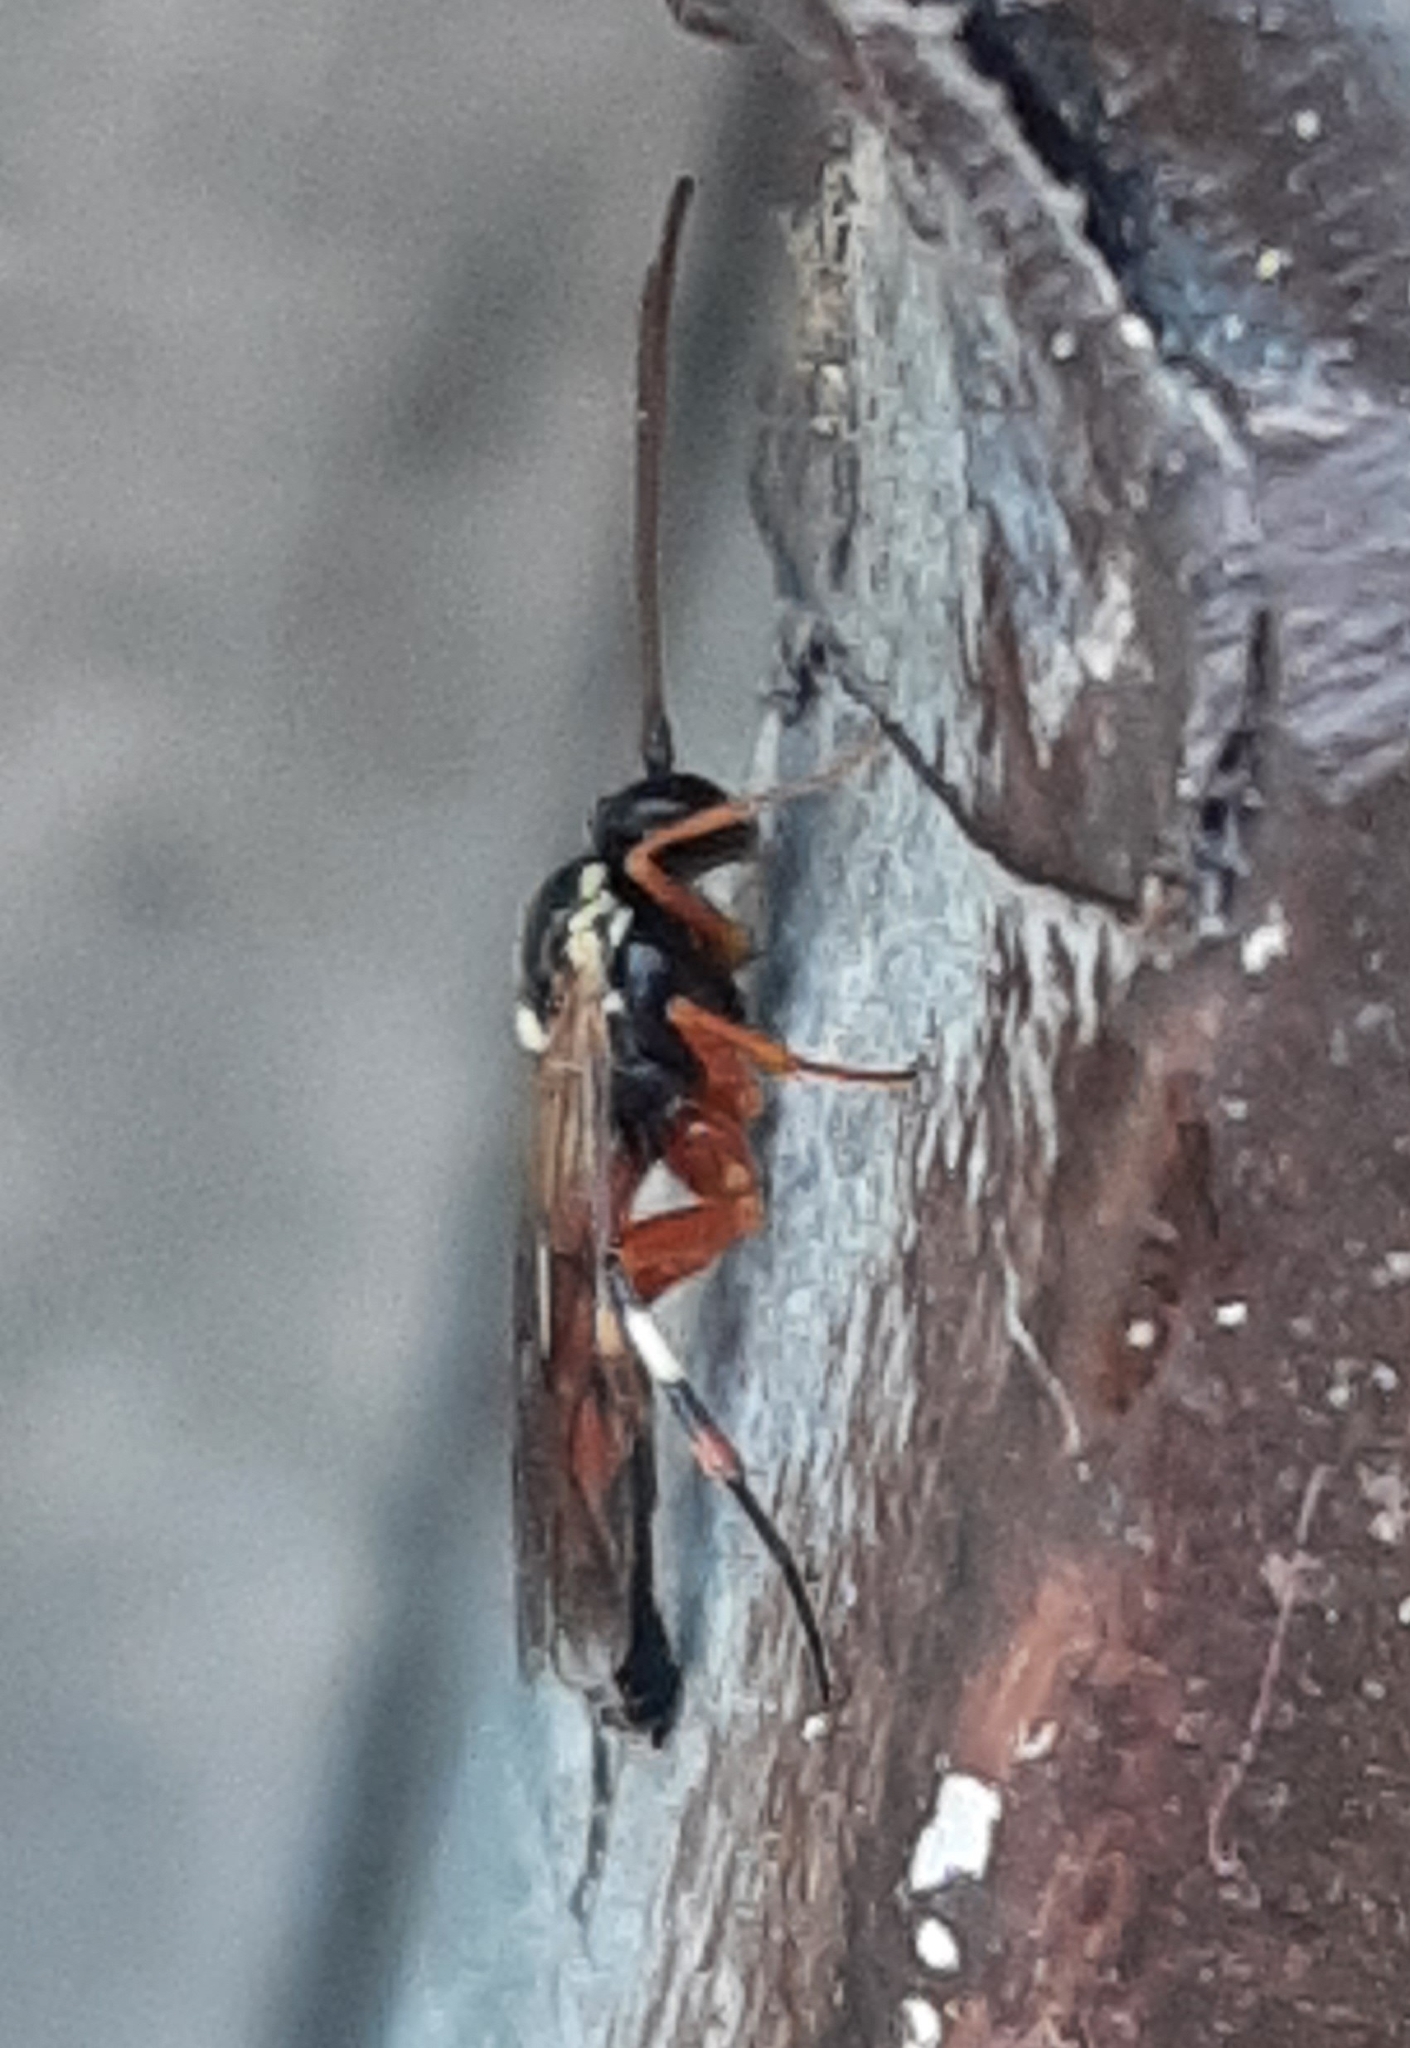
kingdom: Animalia
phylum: Arthropoda
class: Insecta
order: Hymenoptera
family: Ichneumonidae
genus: Diplazon
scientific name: Diplazon laetatorius
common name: Parasitoid wasp
